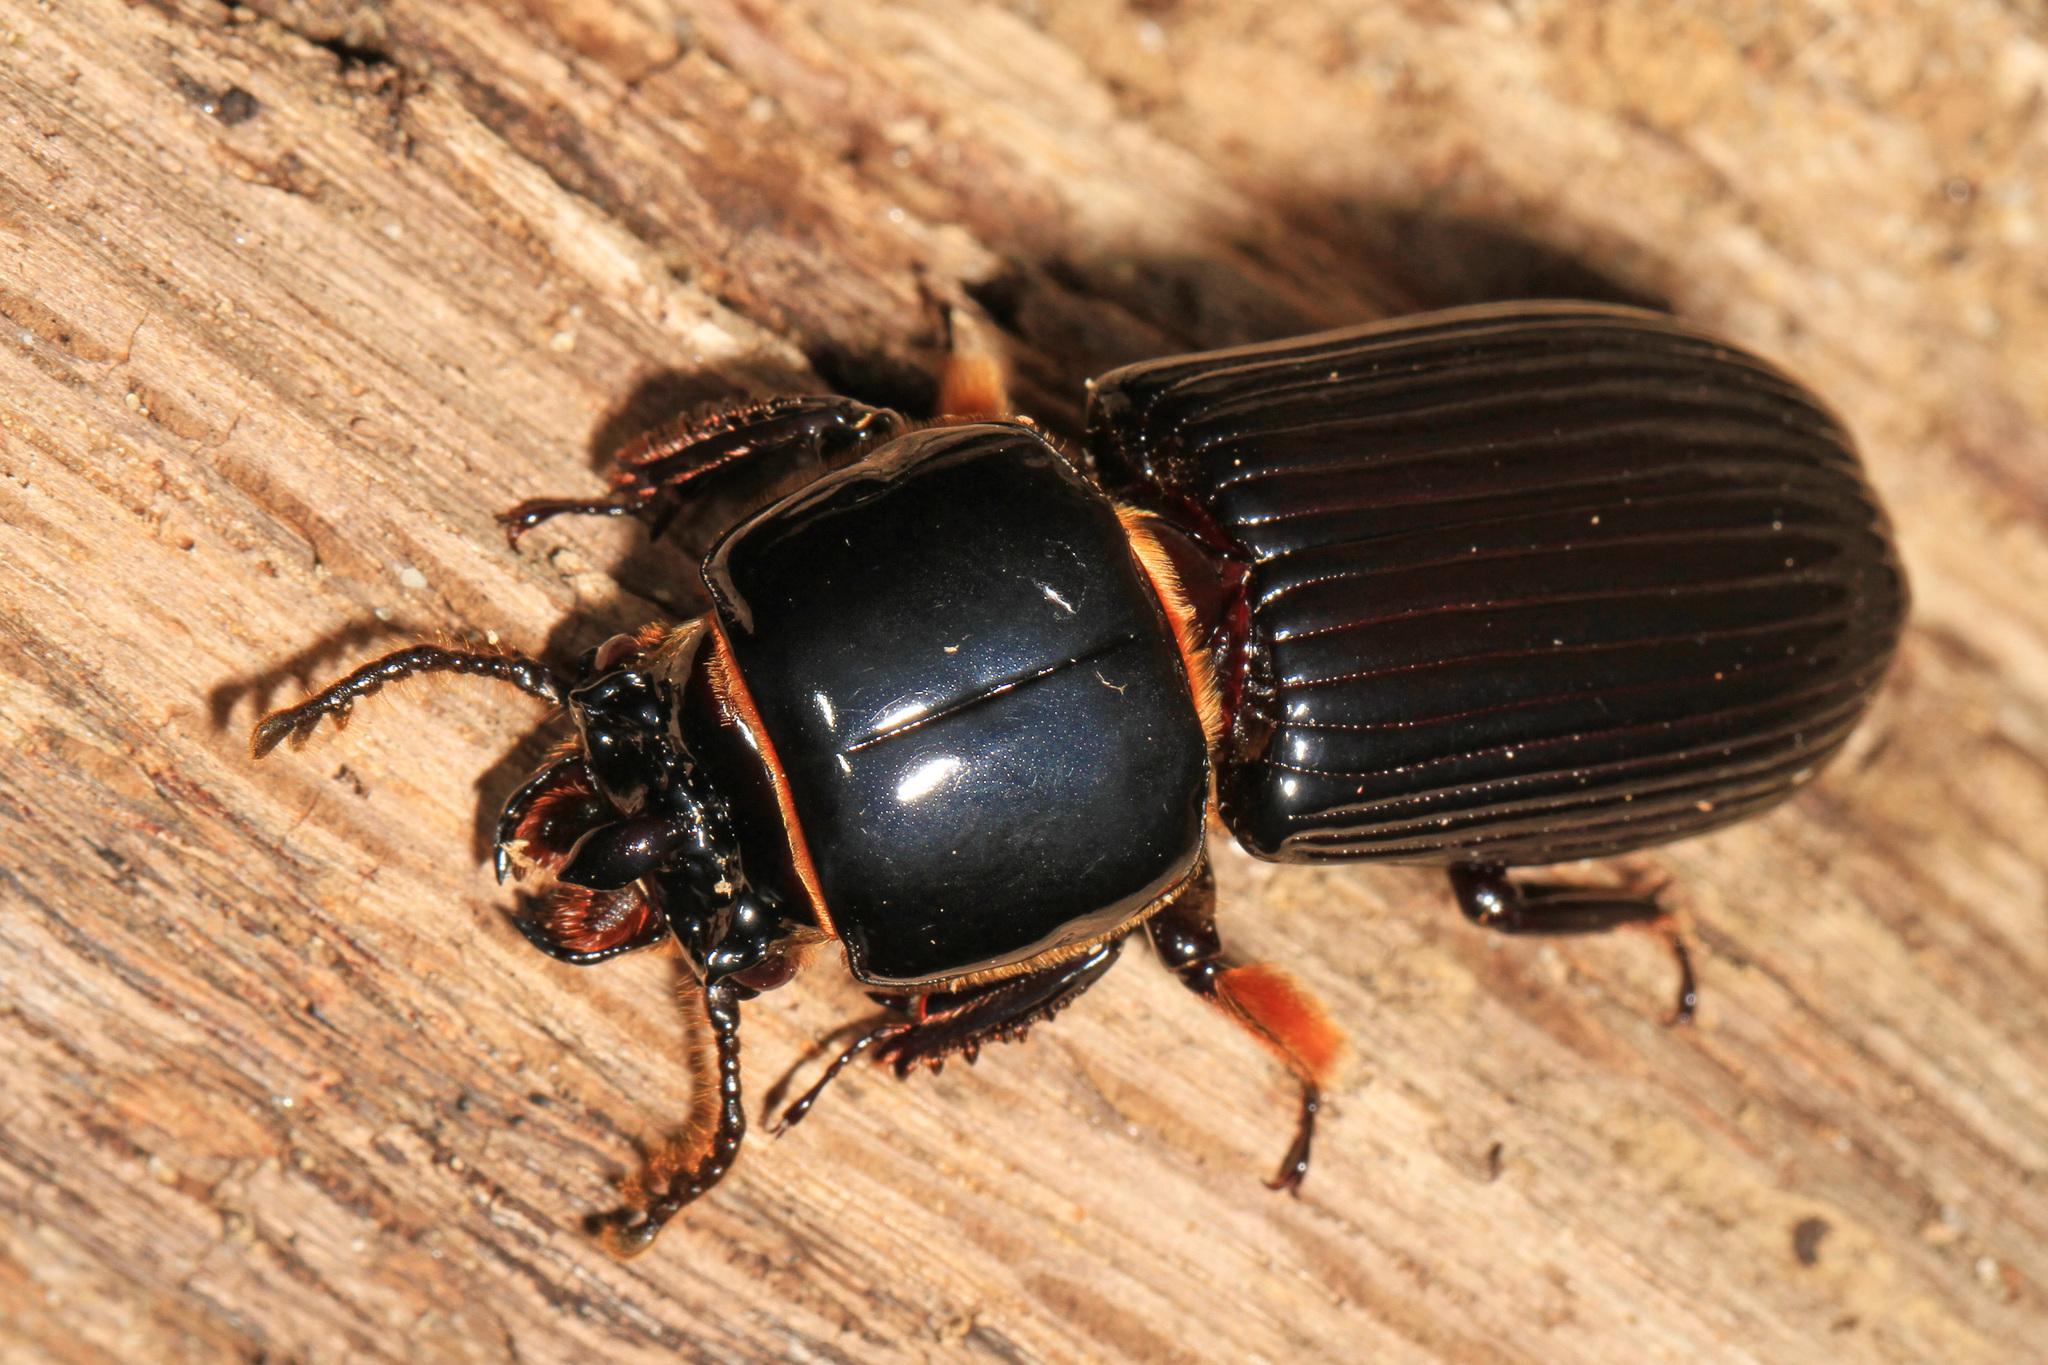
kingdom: Animalia
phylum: Arthropoda
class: Insecta
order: Coleoptera
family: Passalidae
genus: Odontotaenius
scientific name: Odontotaenius disjunctus
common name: Patent leather beetle
